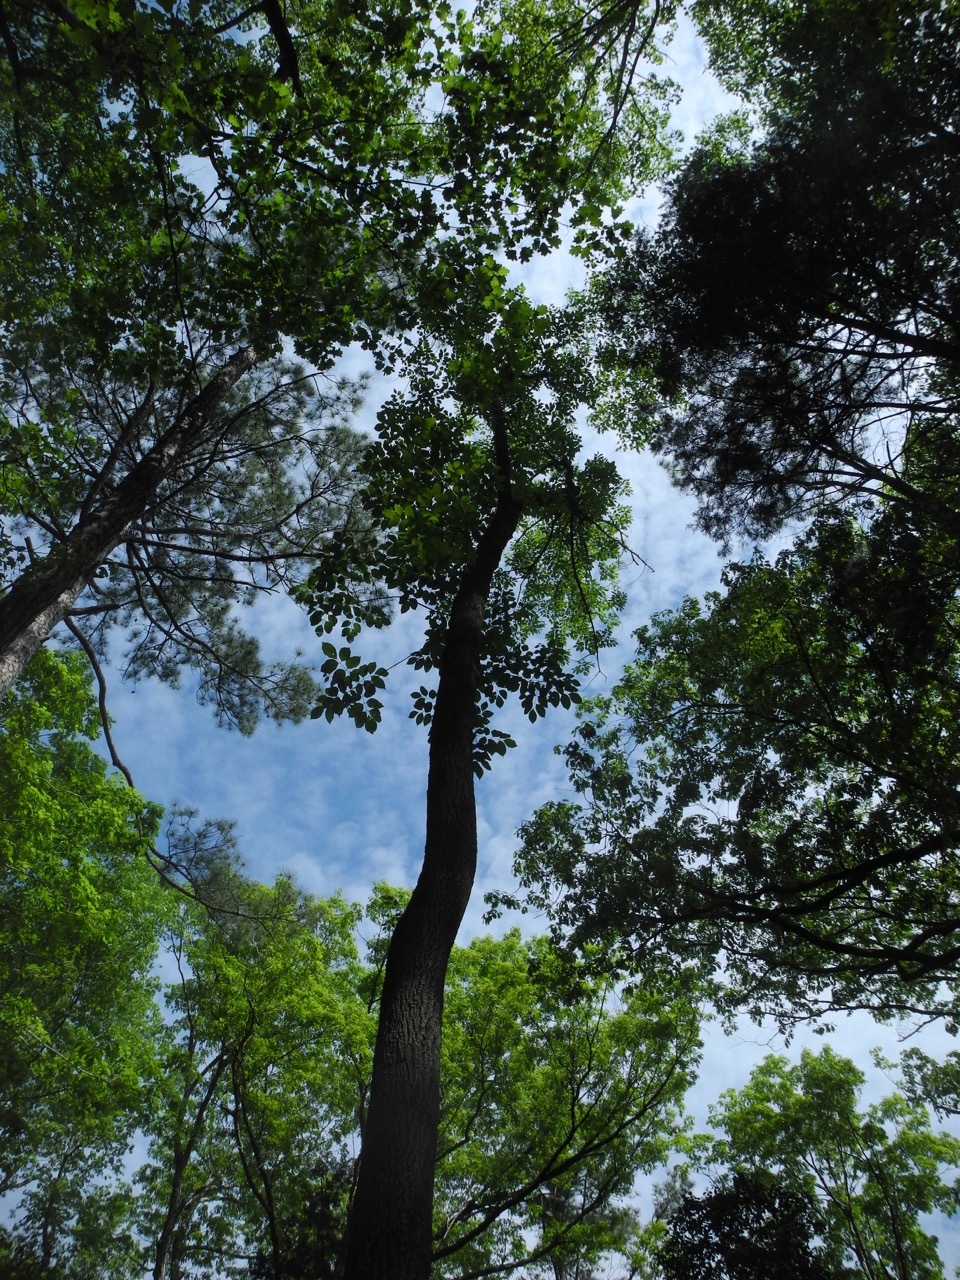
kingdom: Plantae
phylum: Tracheophyta
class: Magnoliopsida
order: Lamiales
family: Oleaceae
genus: Fraxinus
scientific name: Fraxinus americana
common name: White ash
